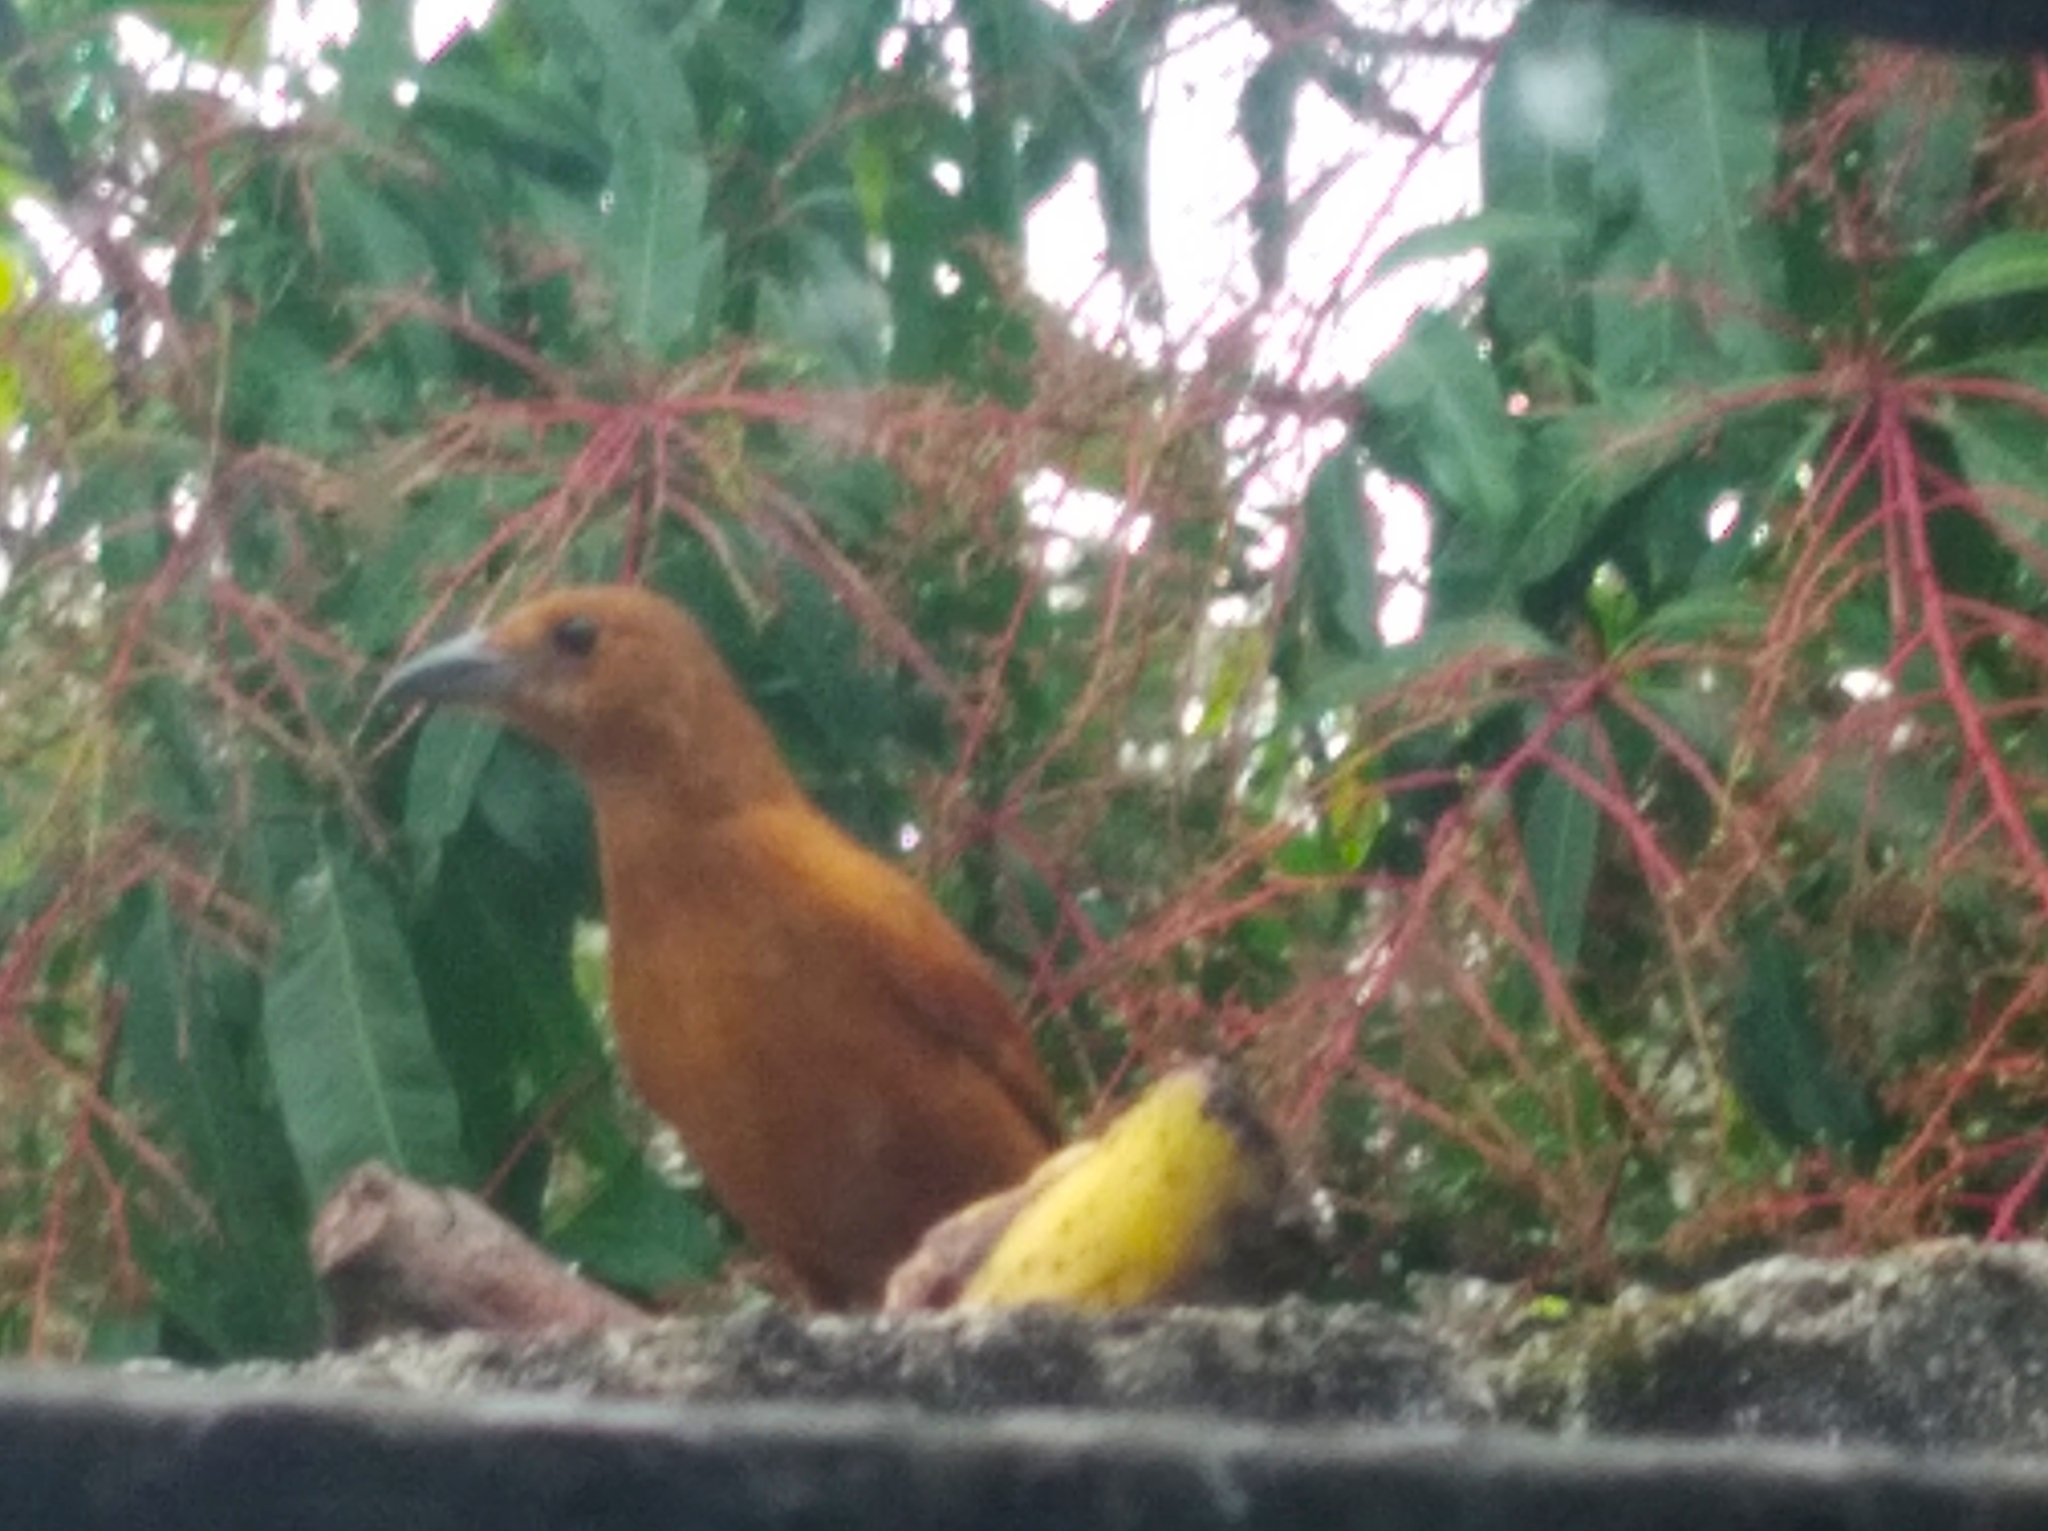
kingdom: Animalia
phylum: Chordata
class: Aves
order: Passeriformes
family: Thraupidae
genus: Tachyphonus
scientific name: Tachyphonus rufus
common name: White-lined tanager
